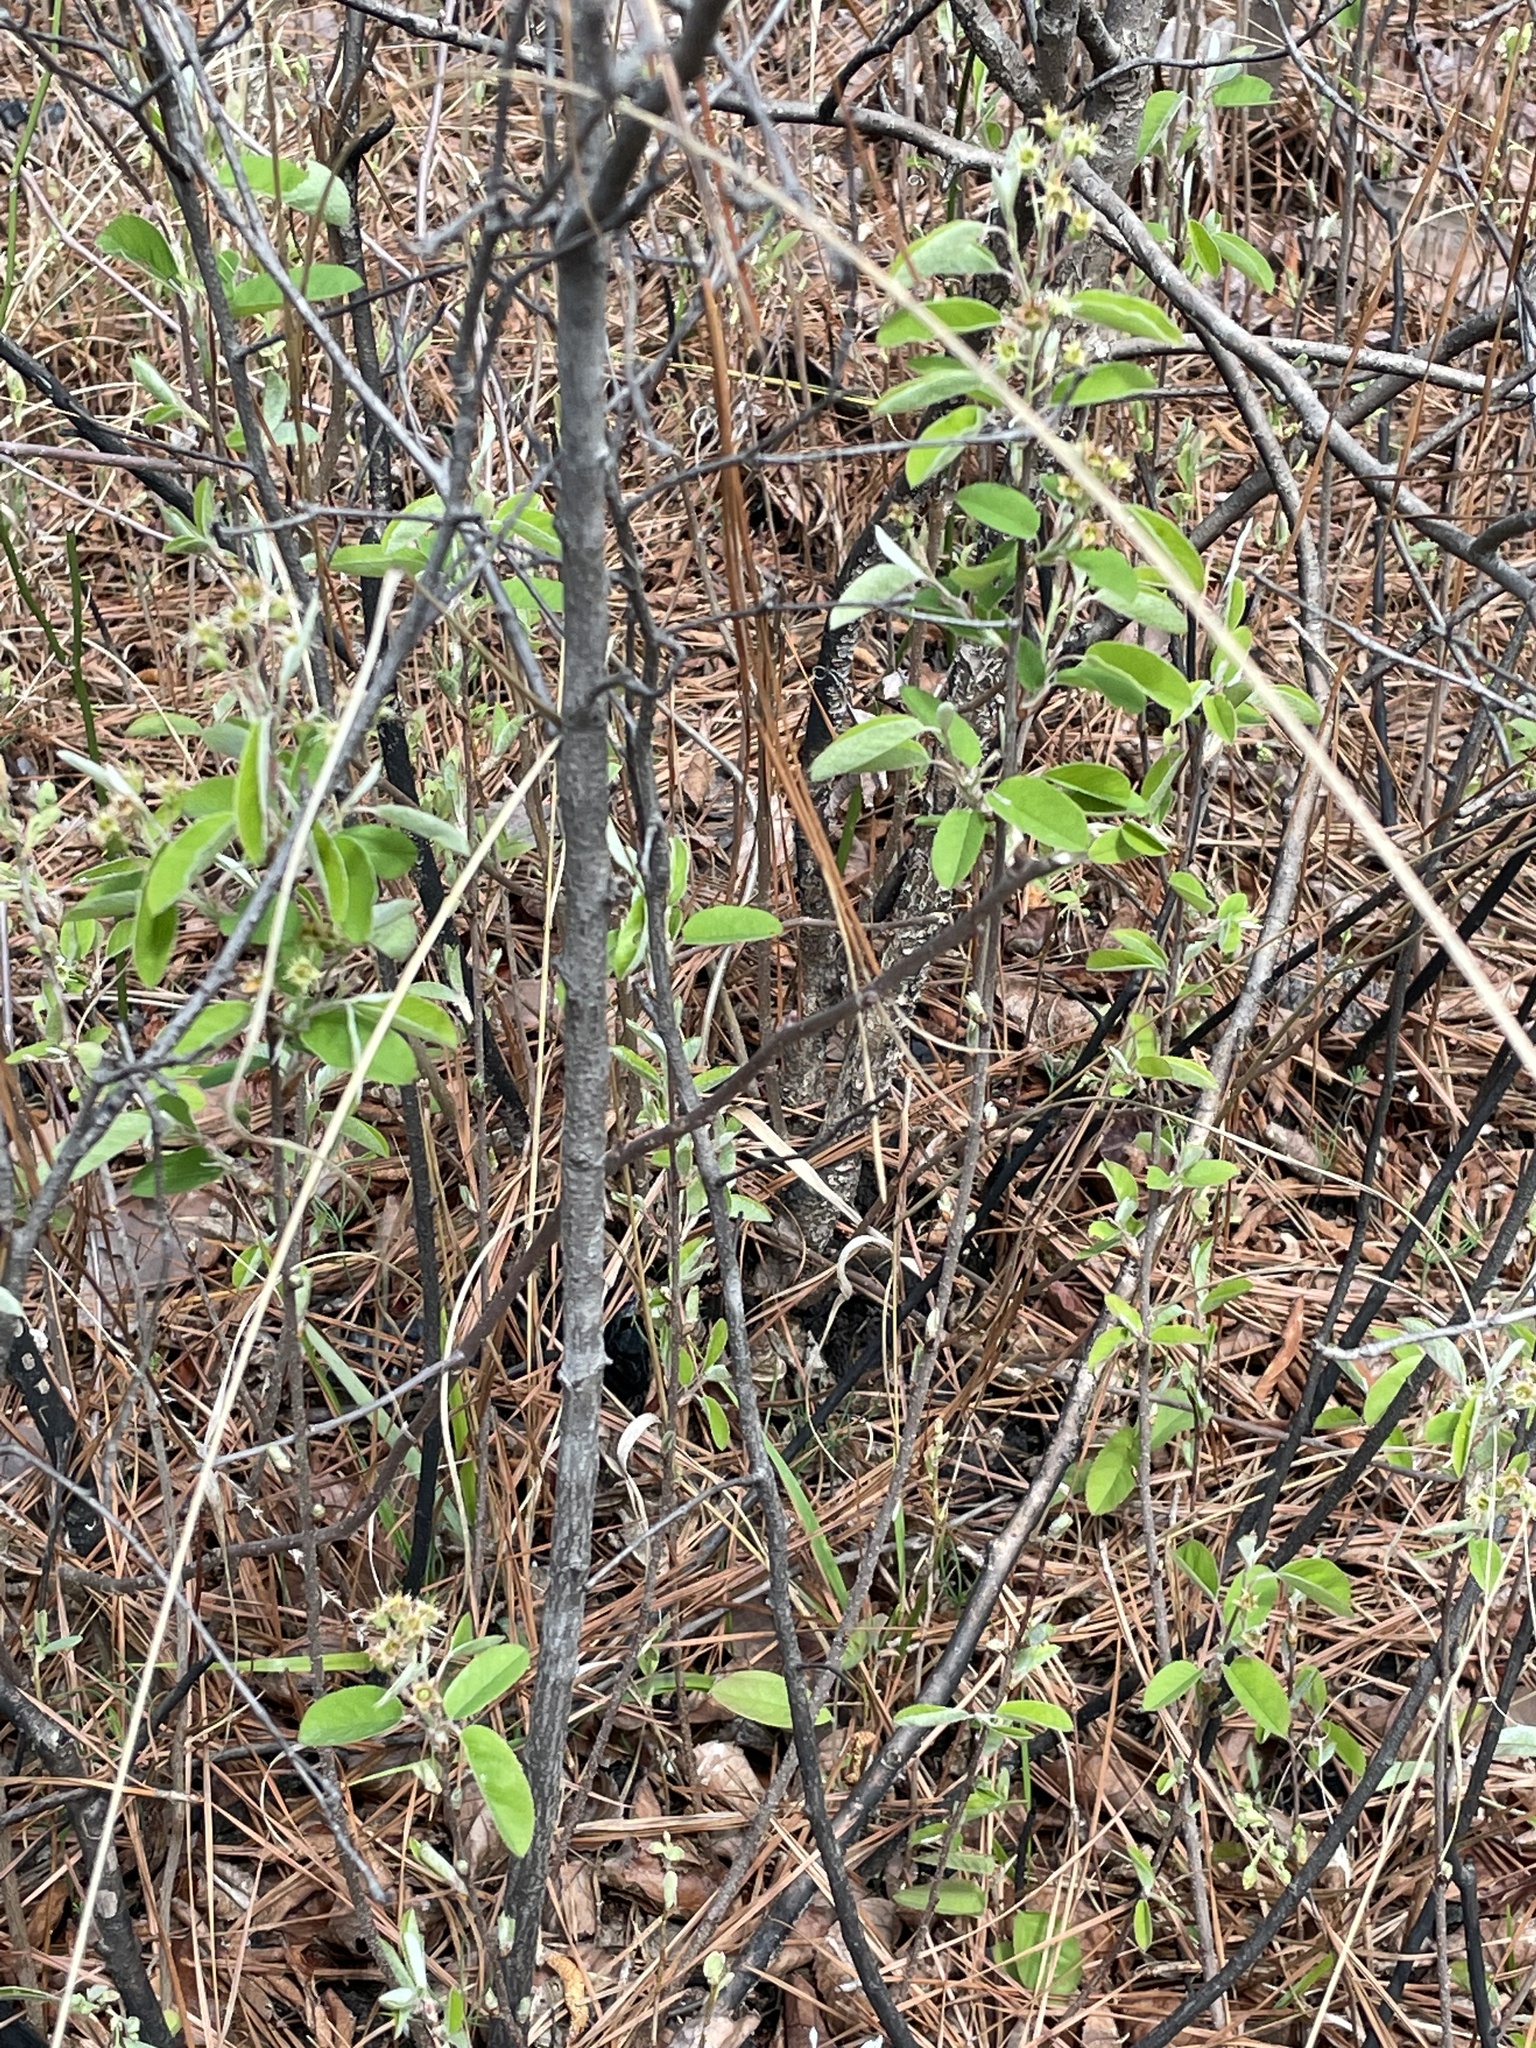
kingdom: Plantae
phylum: Tracheophyta
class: Magnoliopsida
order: Rosales
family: Rosaceae
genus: Amelanchier
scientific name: Amelanchier obovalis
